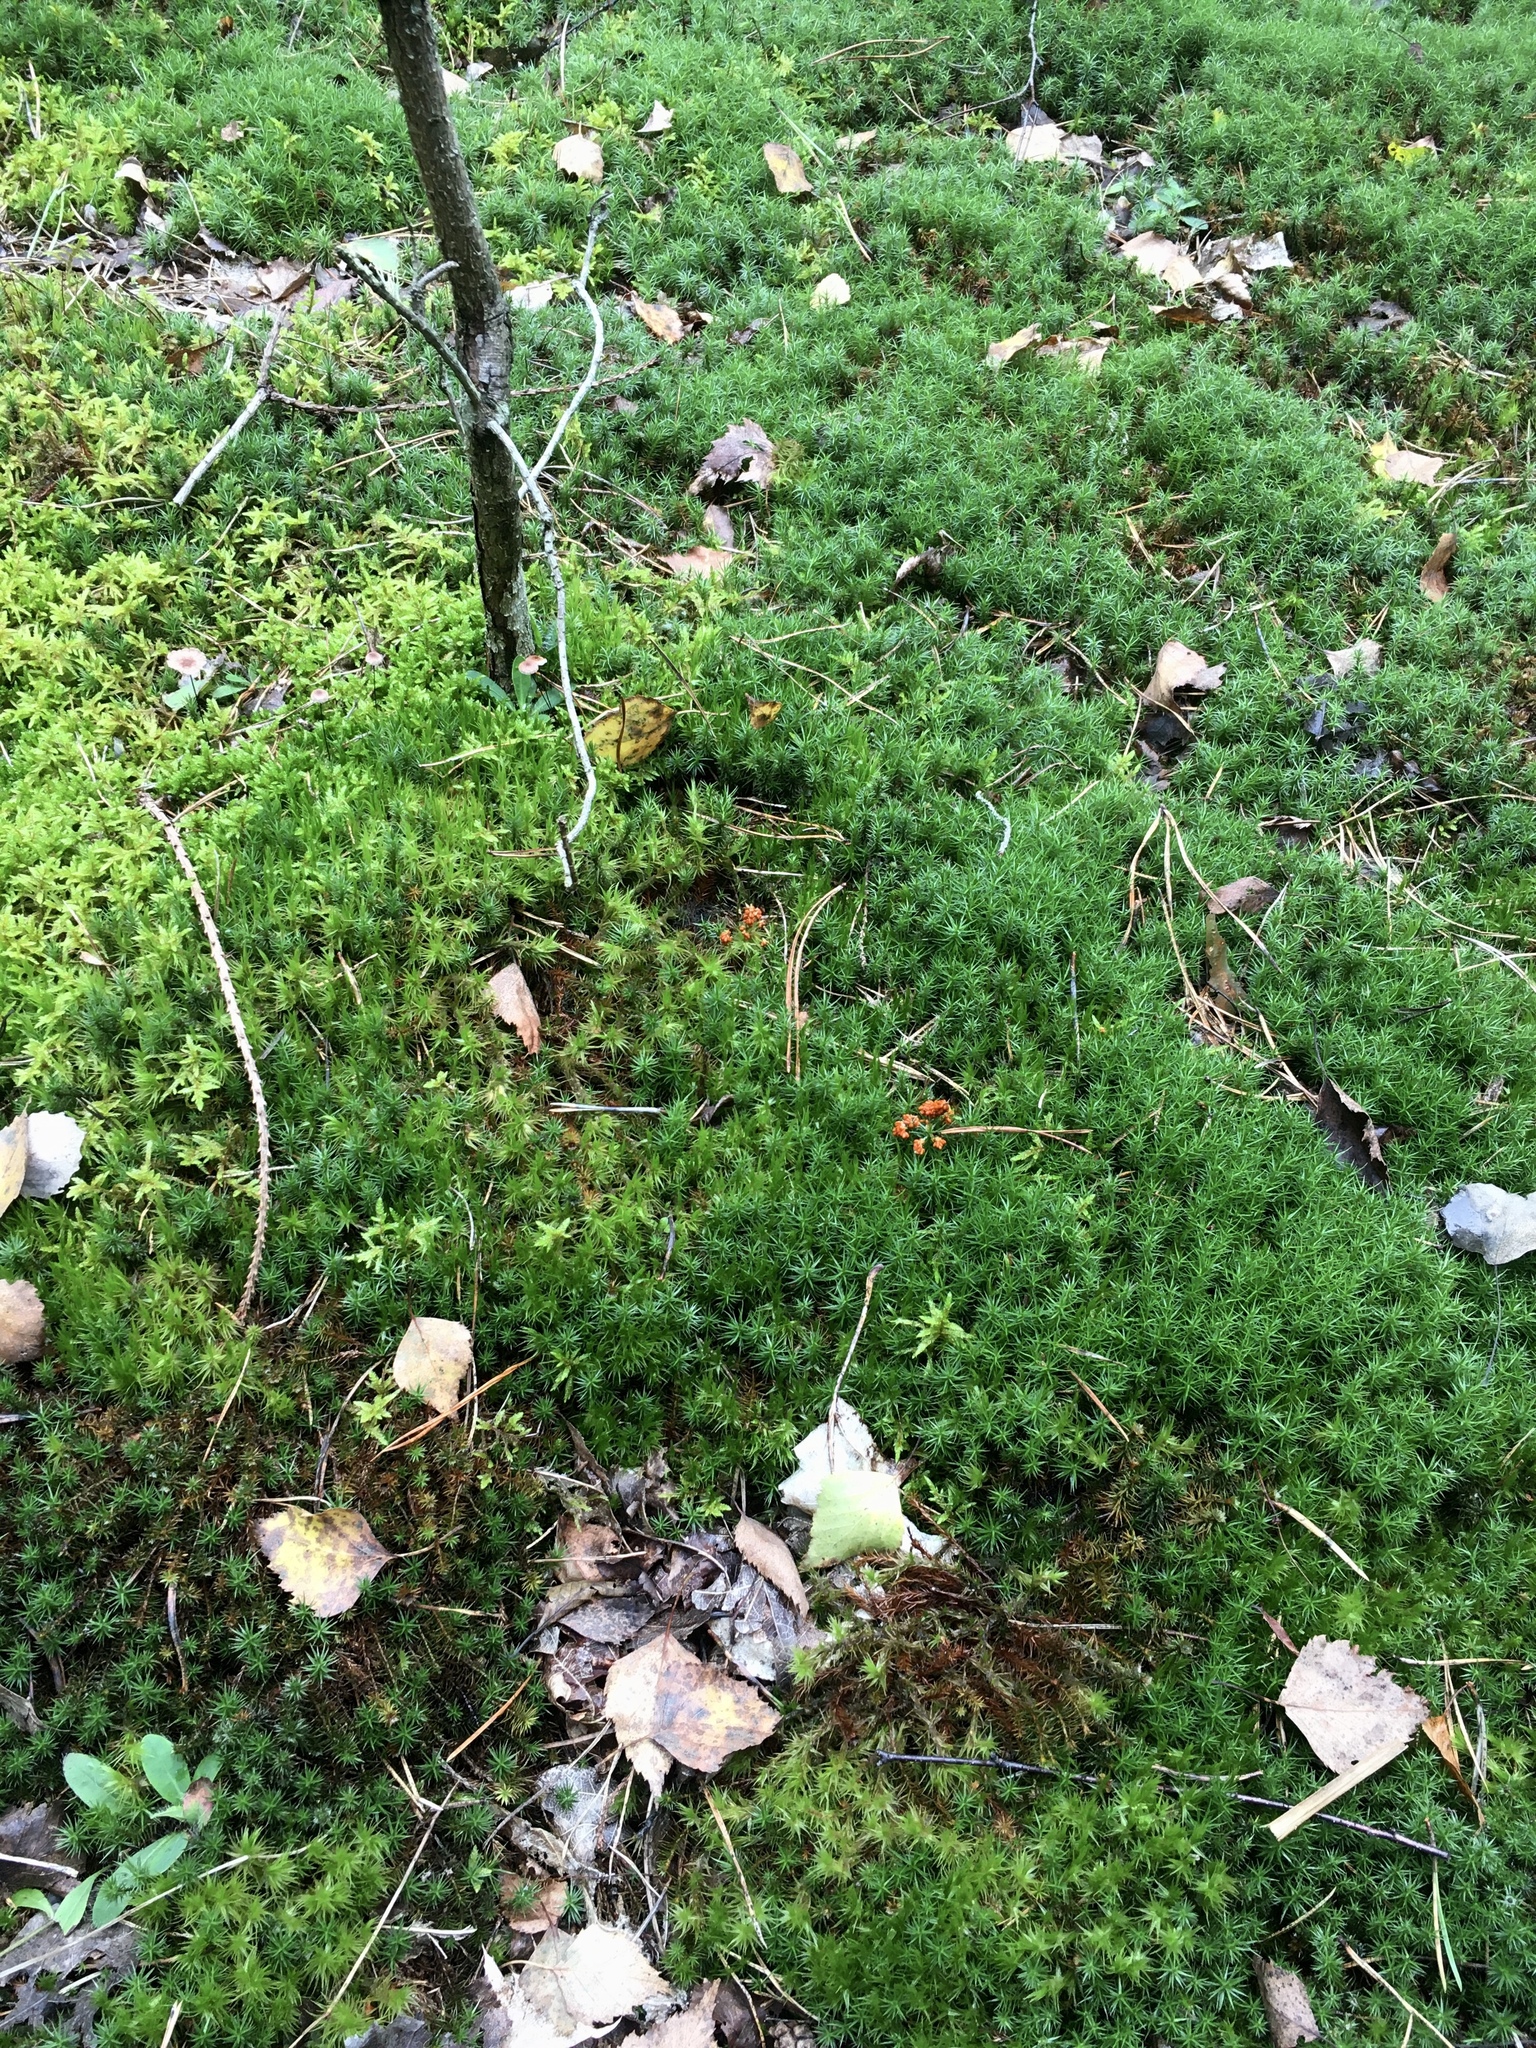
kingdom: Protozoa
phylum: Mycetozoa
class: Myxomycetes
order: Physarales
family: Physaraceae
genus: Leocarpus
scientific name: Leocarpus fragilis
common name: Insect-egg slime
